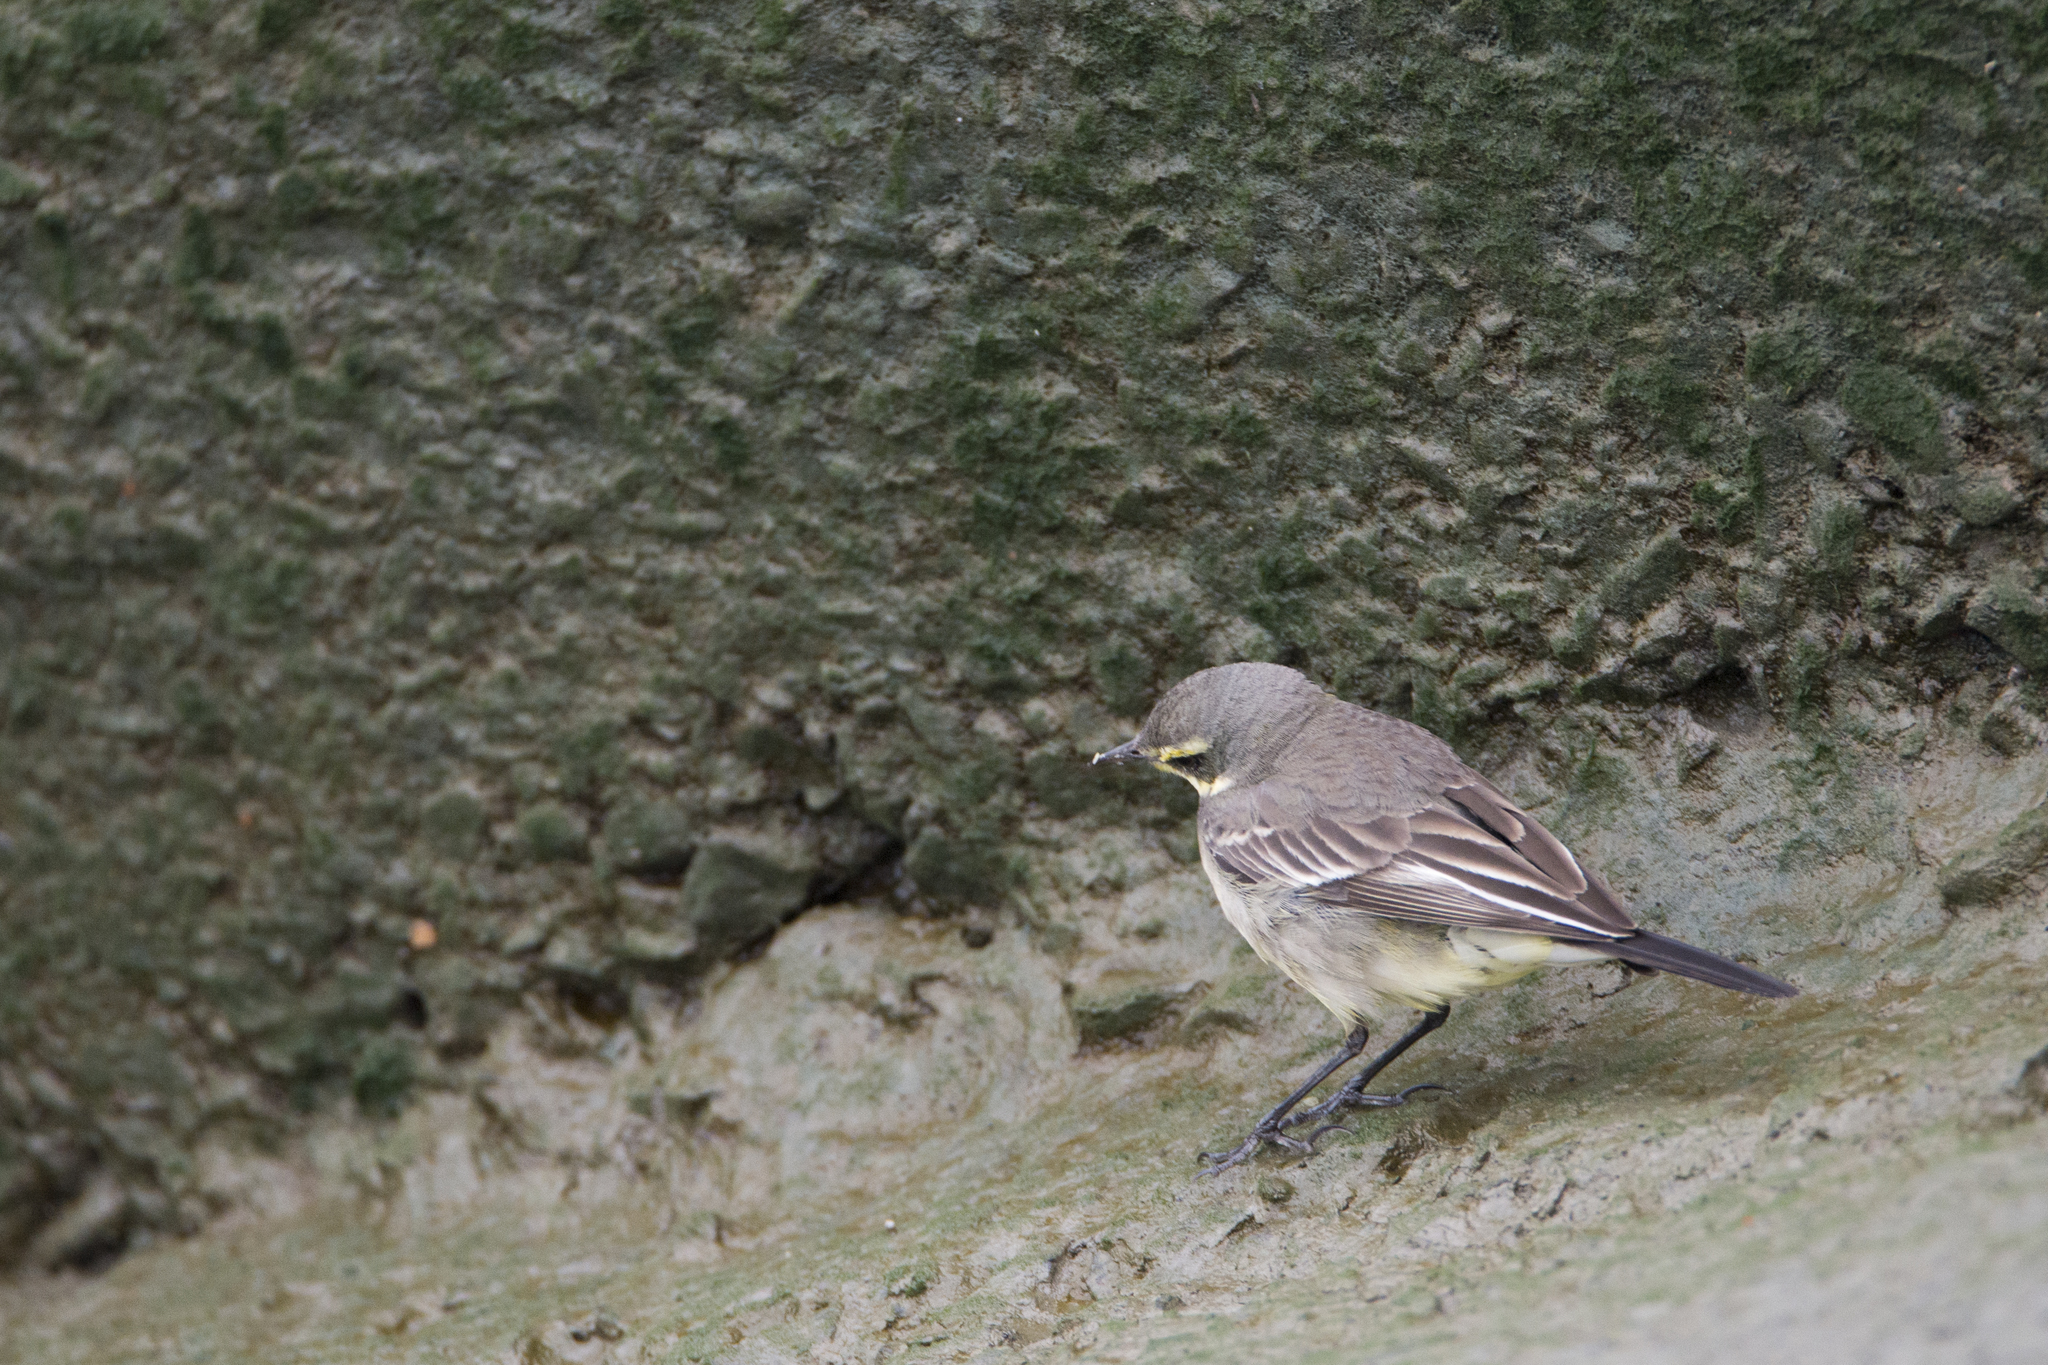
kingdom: Animalia
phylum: Chordata
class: Aves
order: Passeriformes
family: Motacillidae
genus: Motacilla
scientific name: Motacilla tschutschensis
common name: Eastern yellow wagtail
